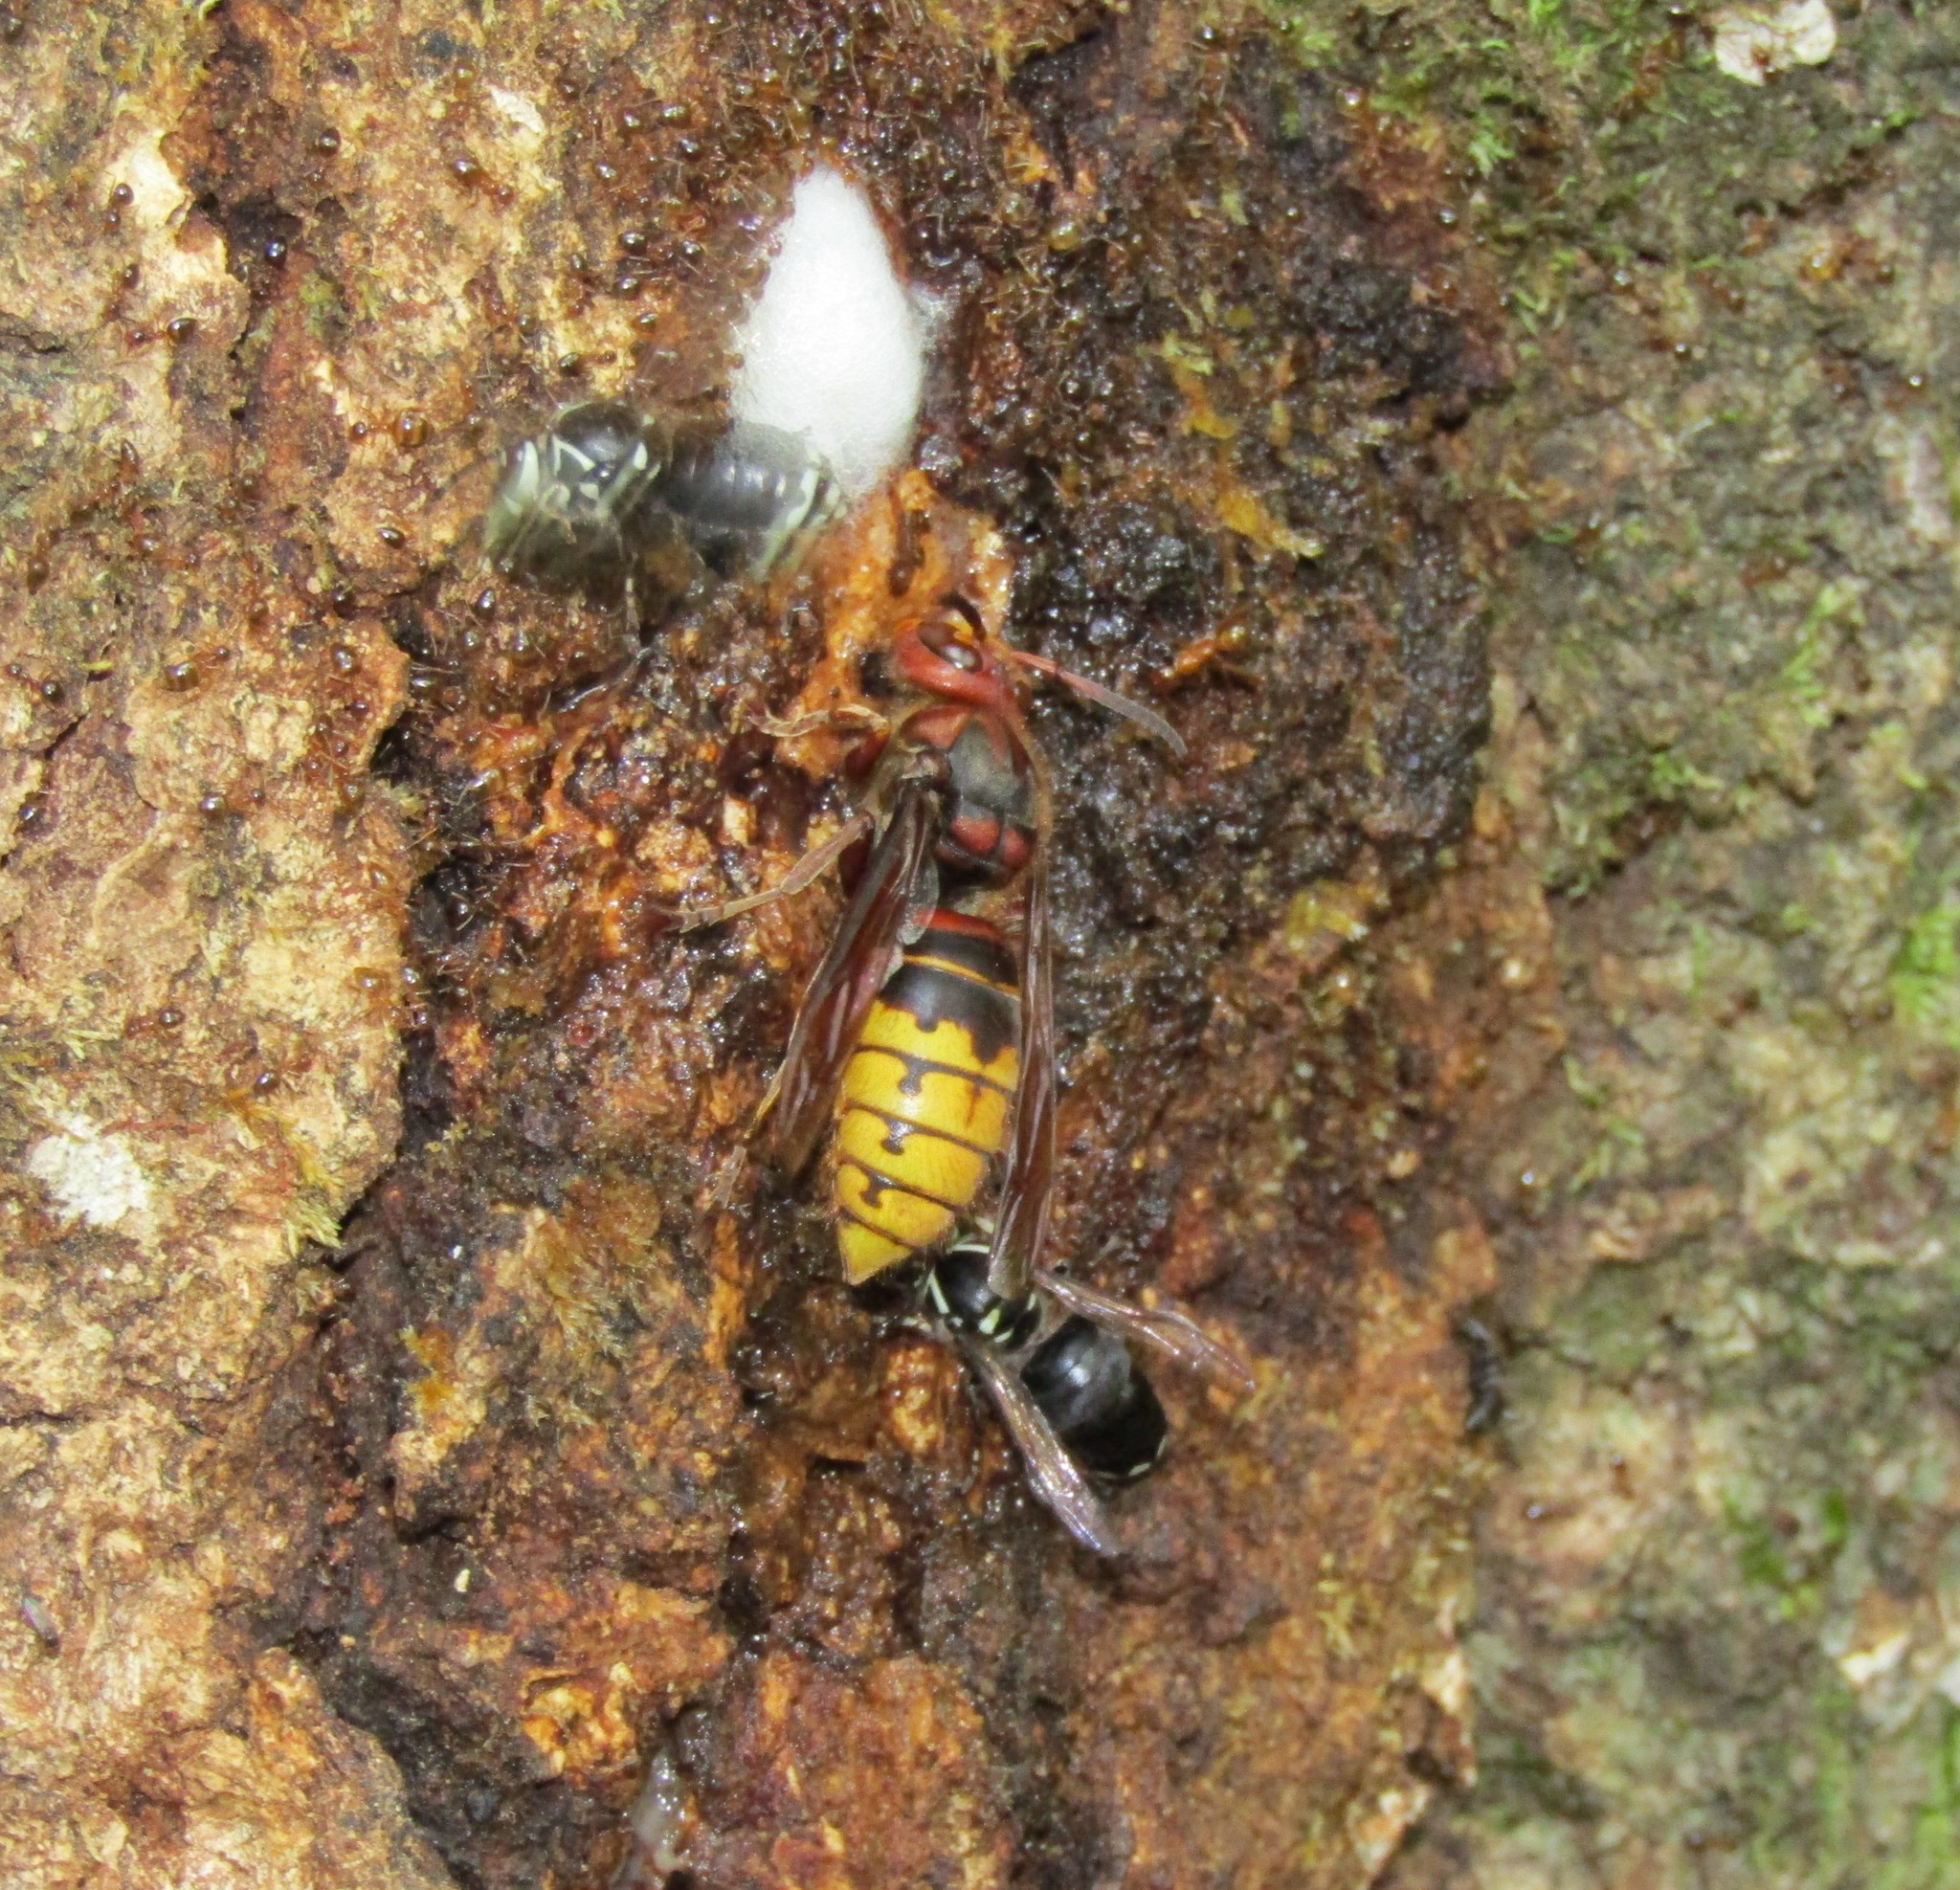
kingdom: Animalia
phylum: Arthropoda
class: Insecta
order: Hymenoptera
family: Vespidae
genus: Vespa
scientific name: Vespa crabro
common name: Hornet
